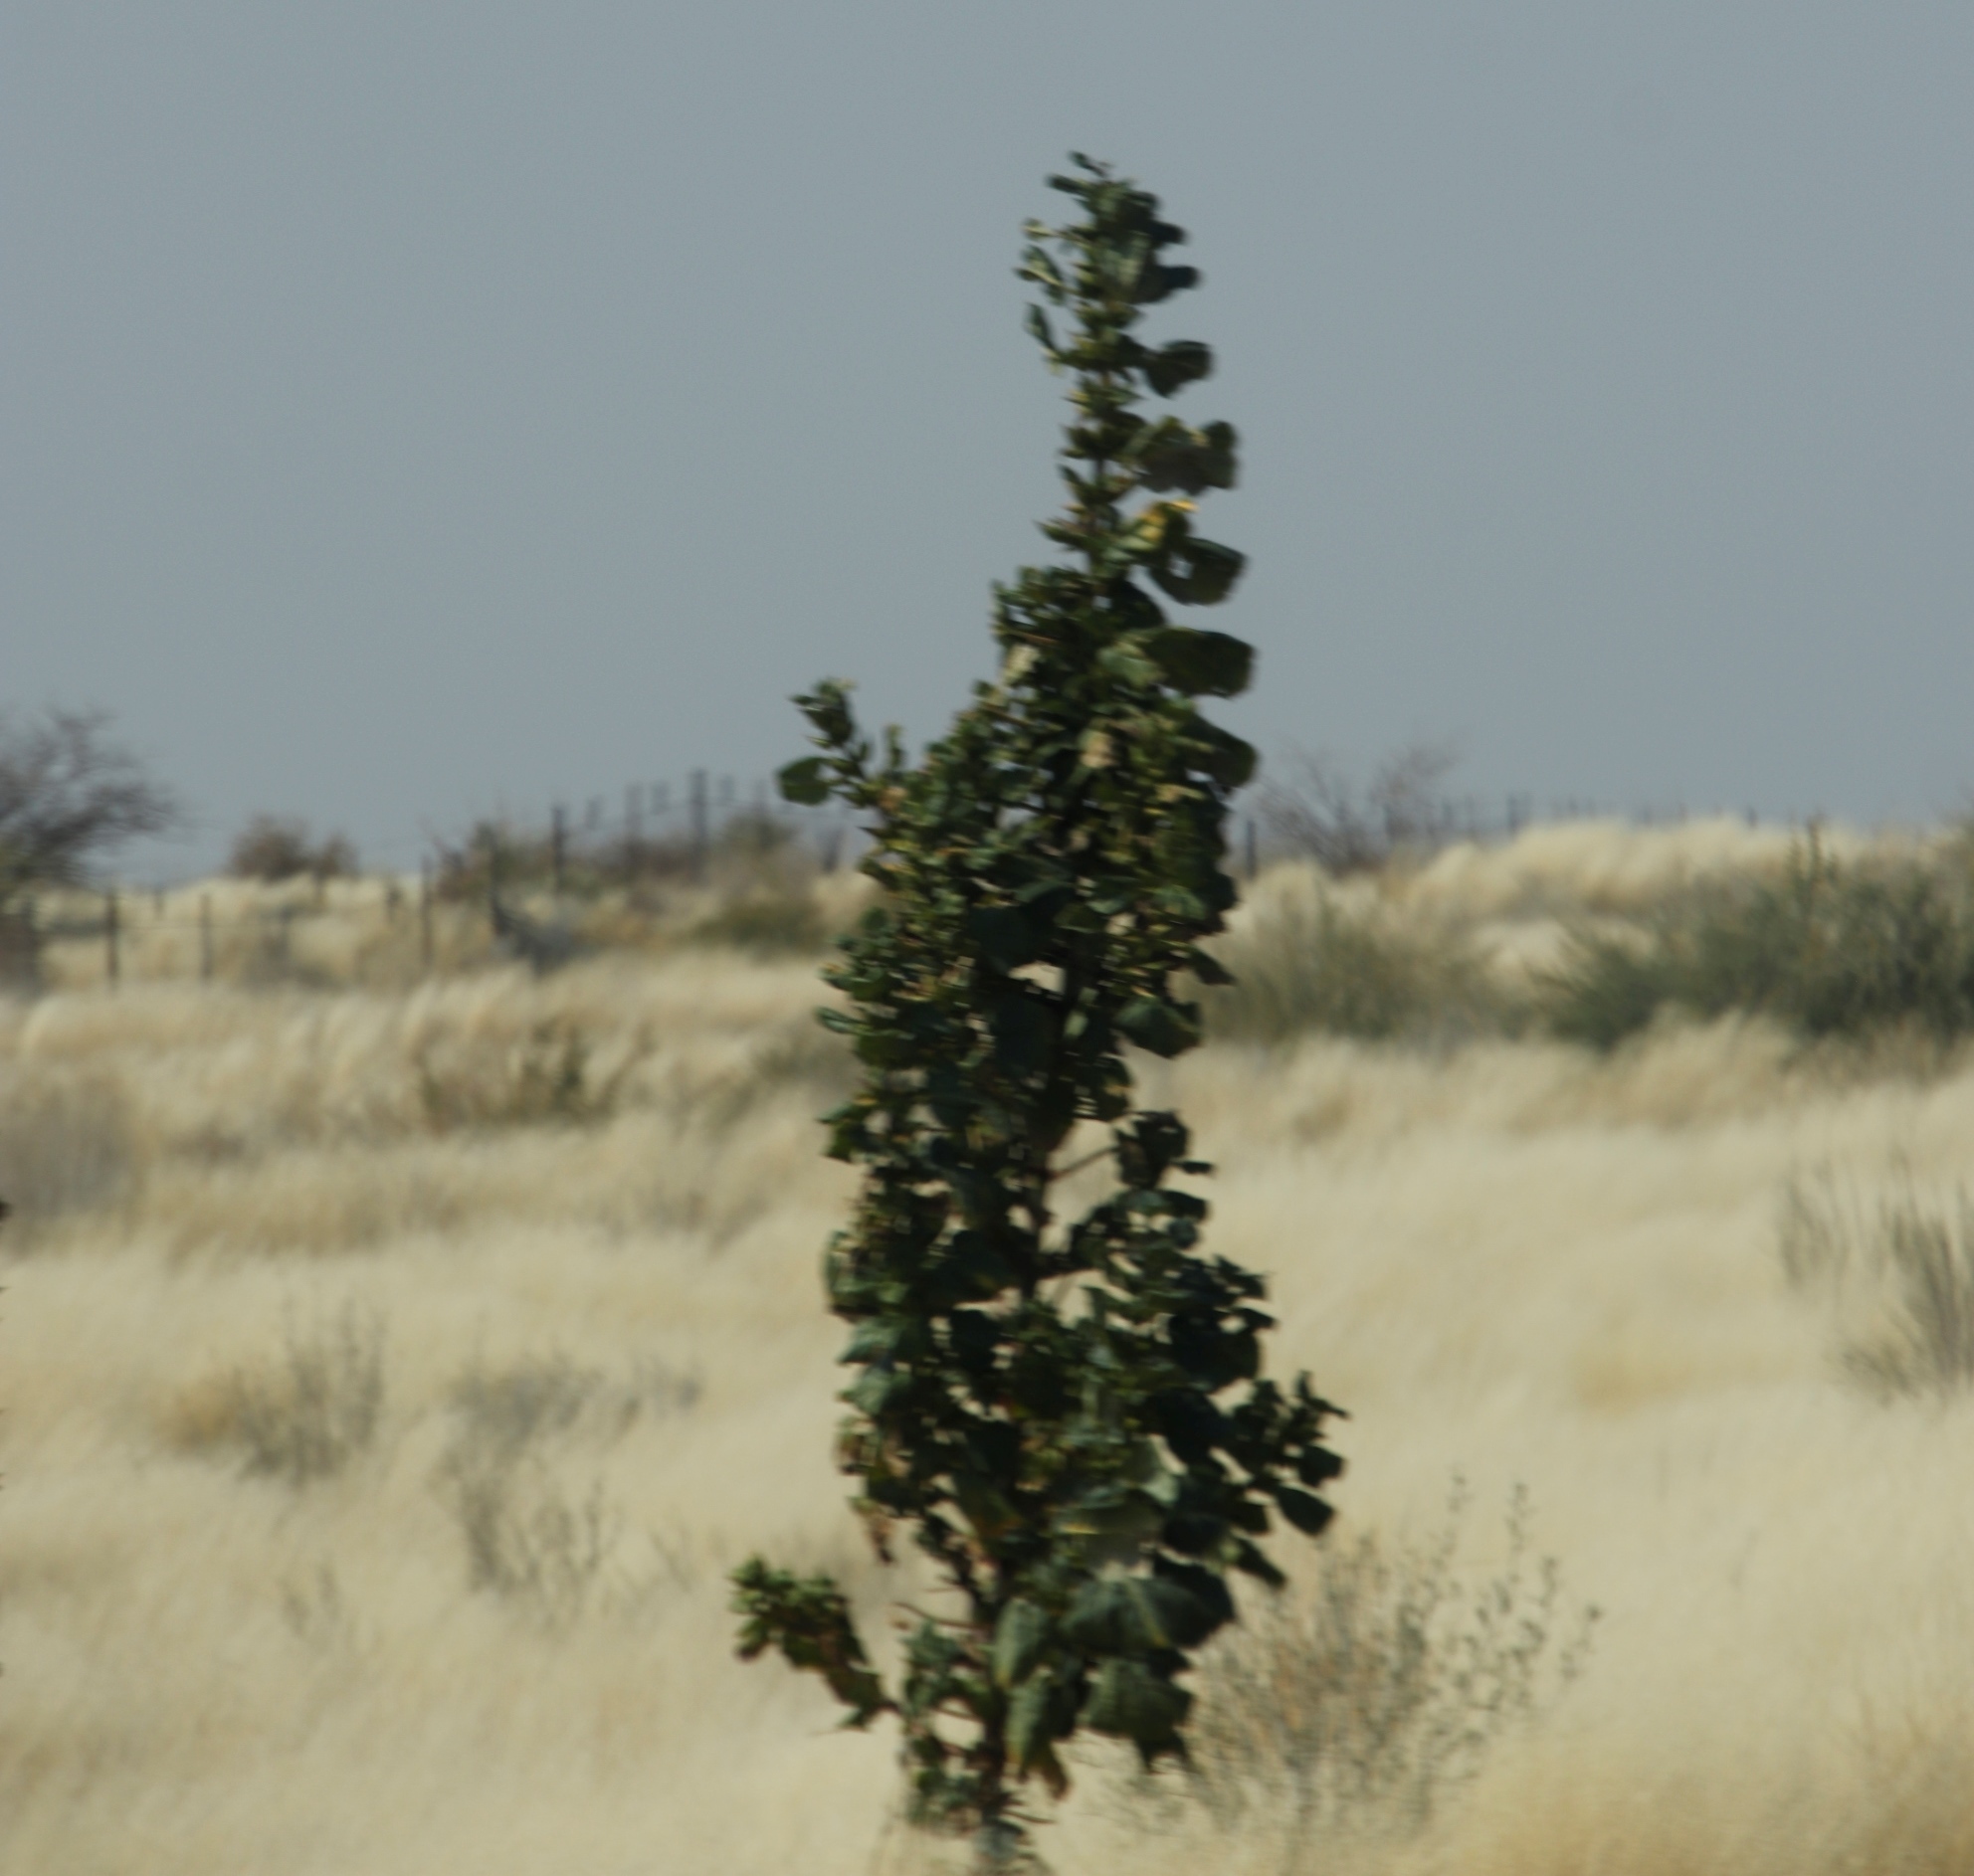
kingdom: Plantae
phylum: Tracheophyta
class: Magnoliopsida
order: Lamiales
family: Pedaliaceae
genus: Rogeria
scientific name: Rogeria longiflora
